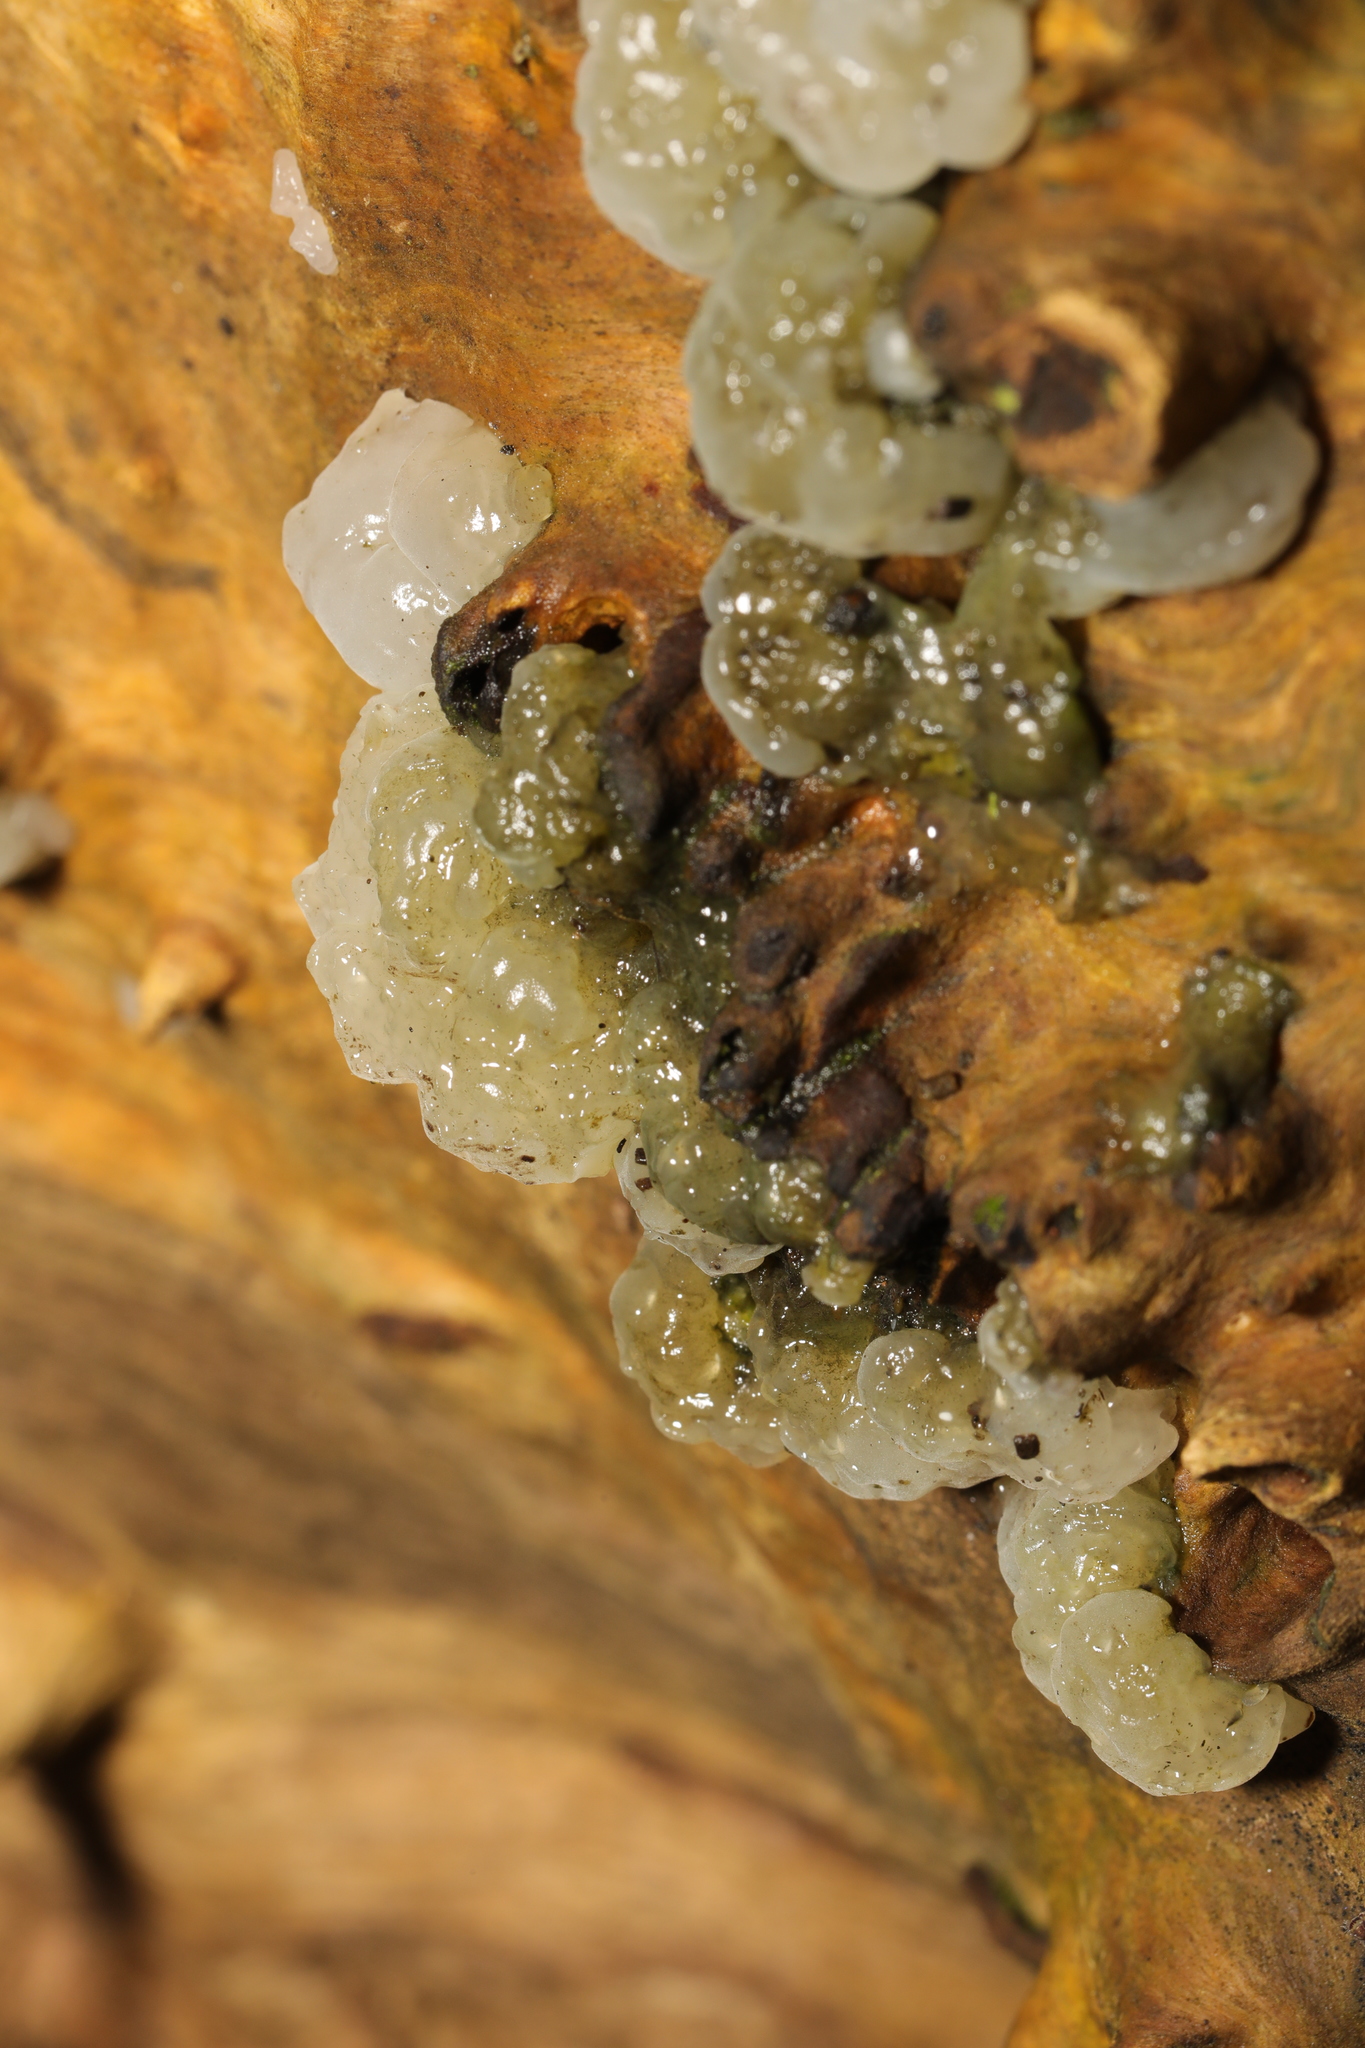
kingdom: Fungi
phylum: Basidiomycota
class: Agaricomycetes
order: Auriculariales
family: Hyaloriaceae
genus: Myxarium
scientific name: Myxarium nucleatum
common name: Crystal brain fungus
